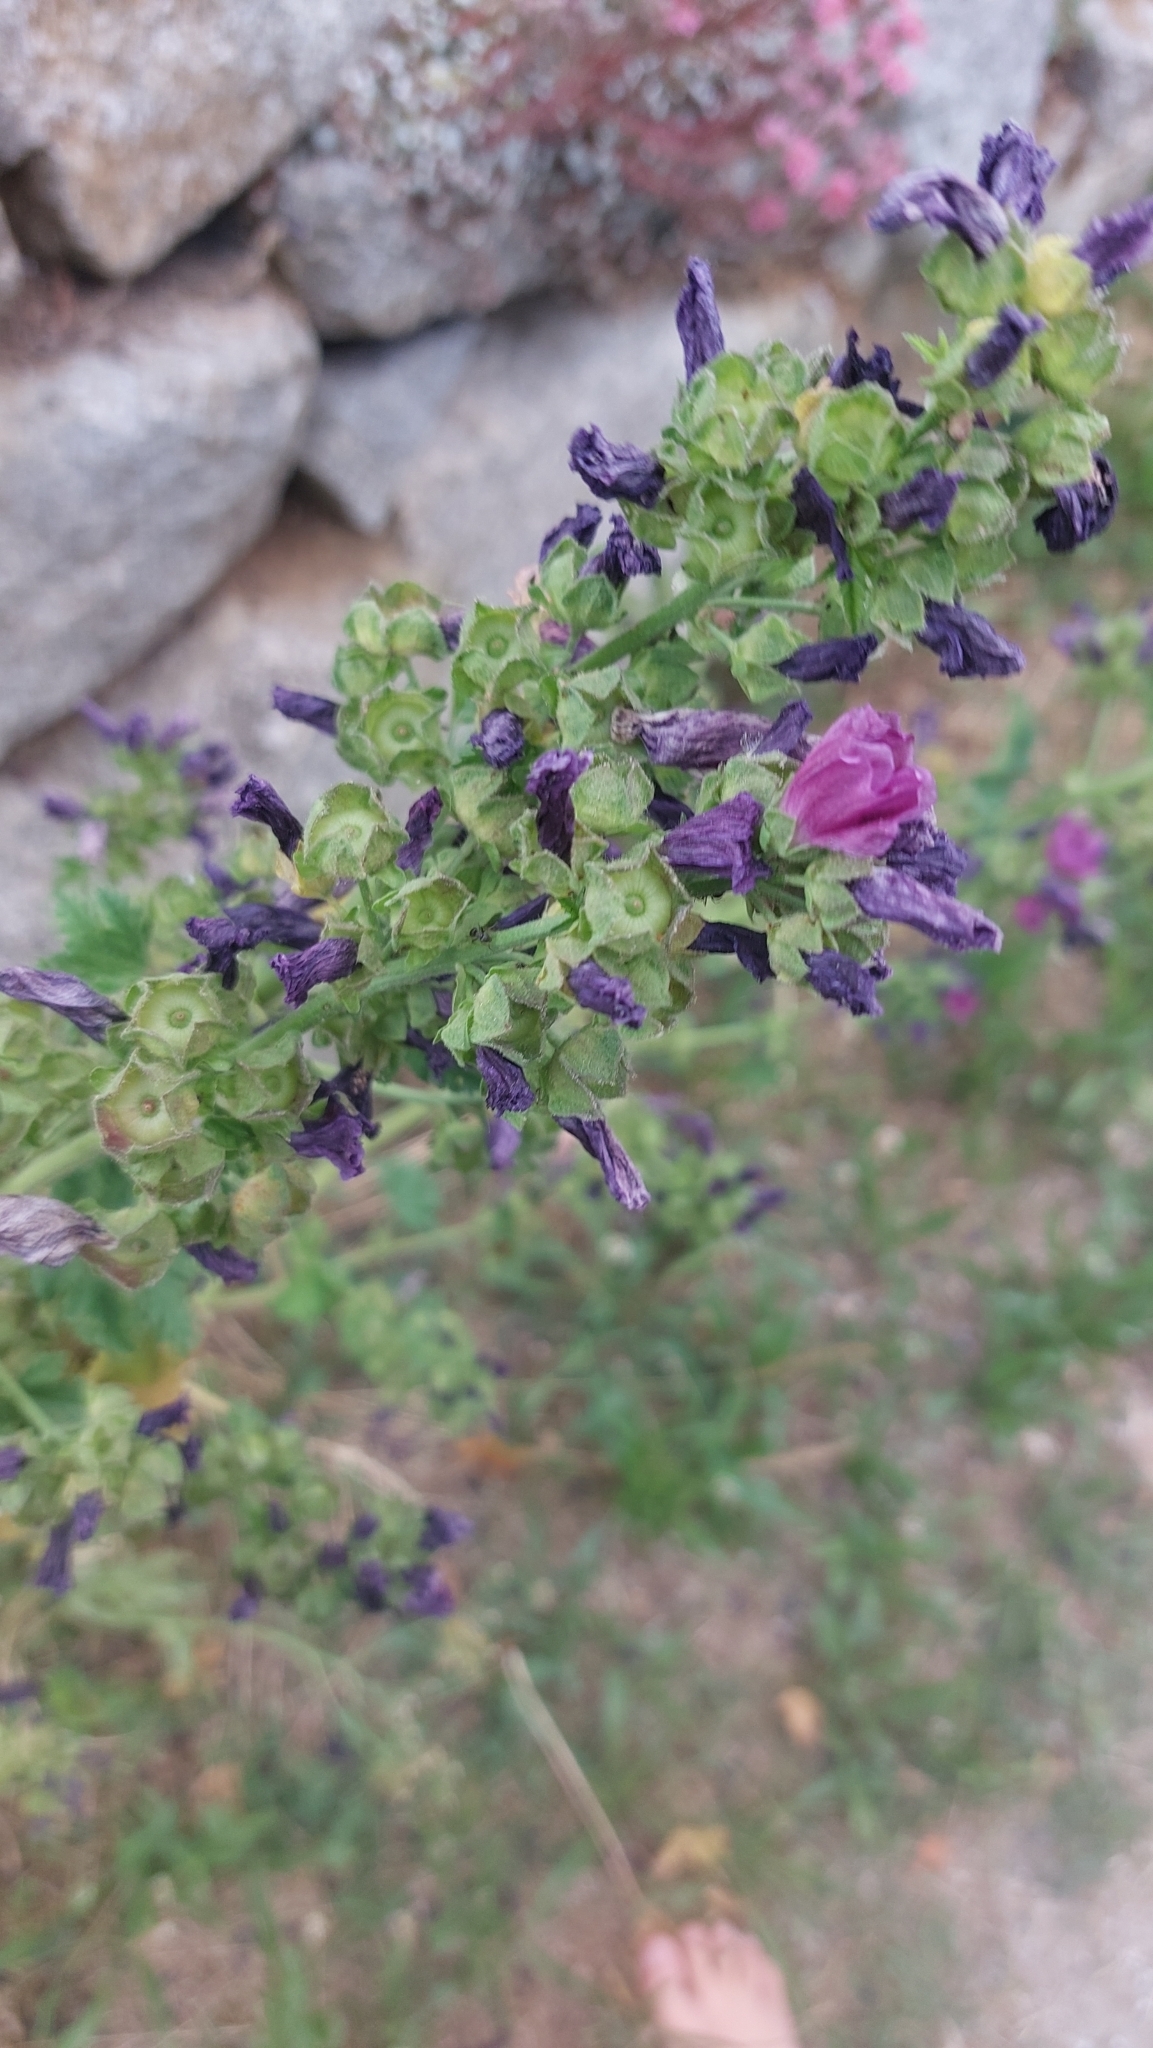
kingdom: Plantae
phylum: Tracheophyta
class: Magnoliopsida
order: Malvales
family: Malvaceae
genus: Malva
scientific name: Malva sylvestris
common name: Common mallow
